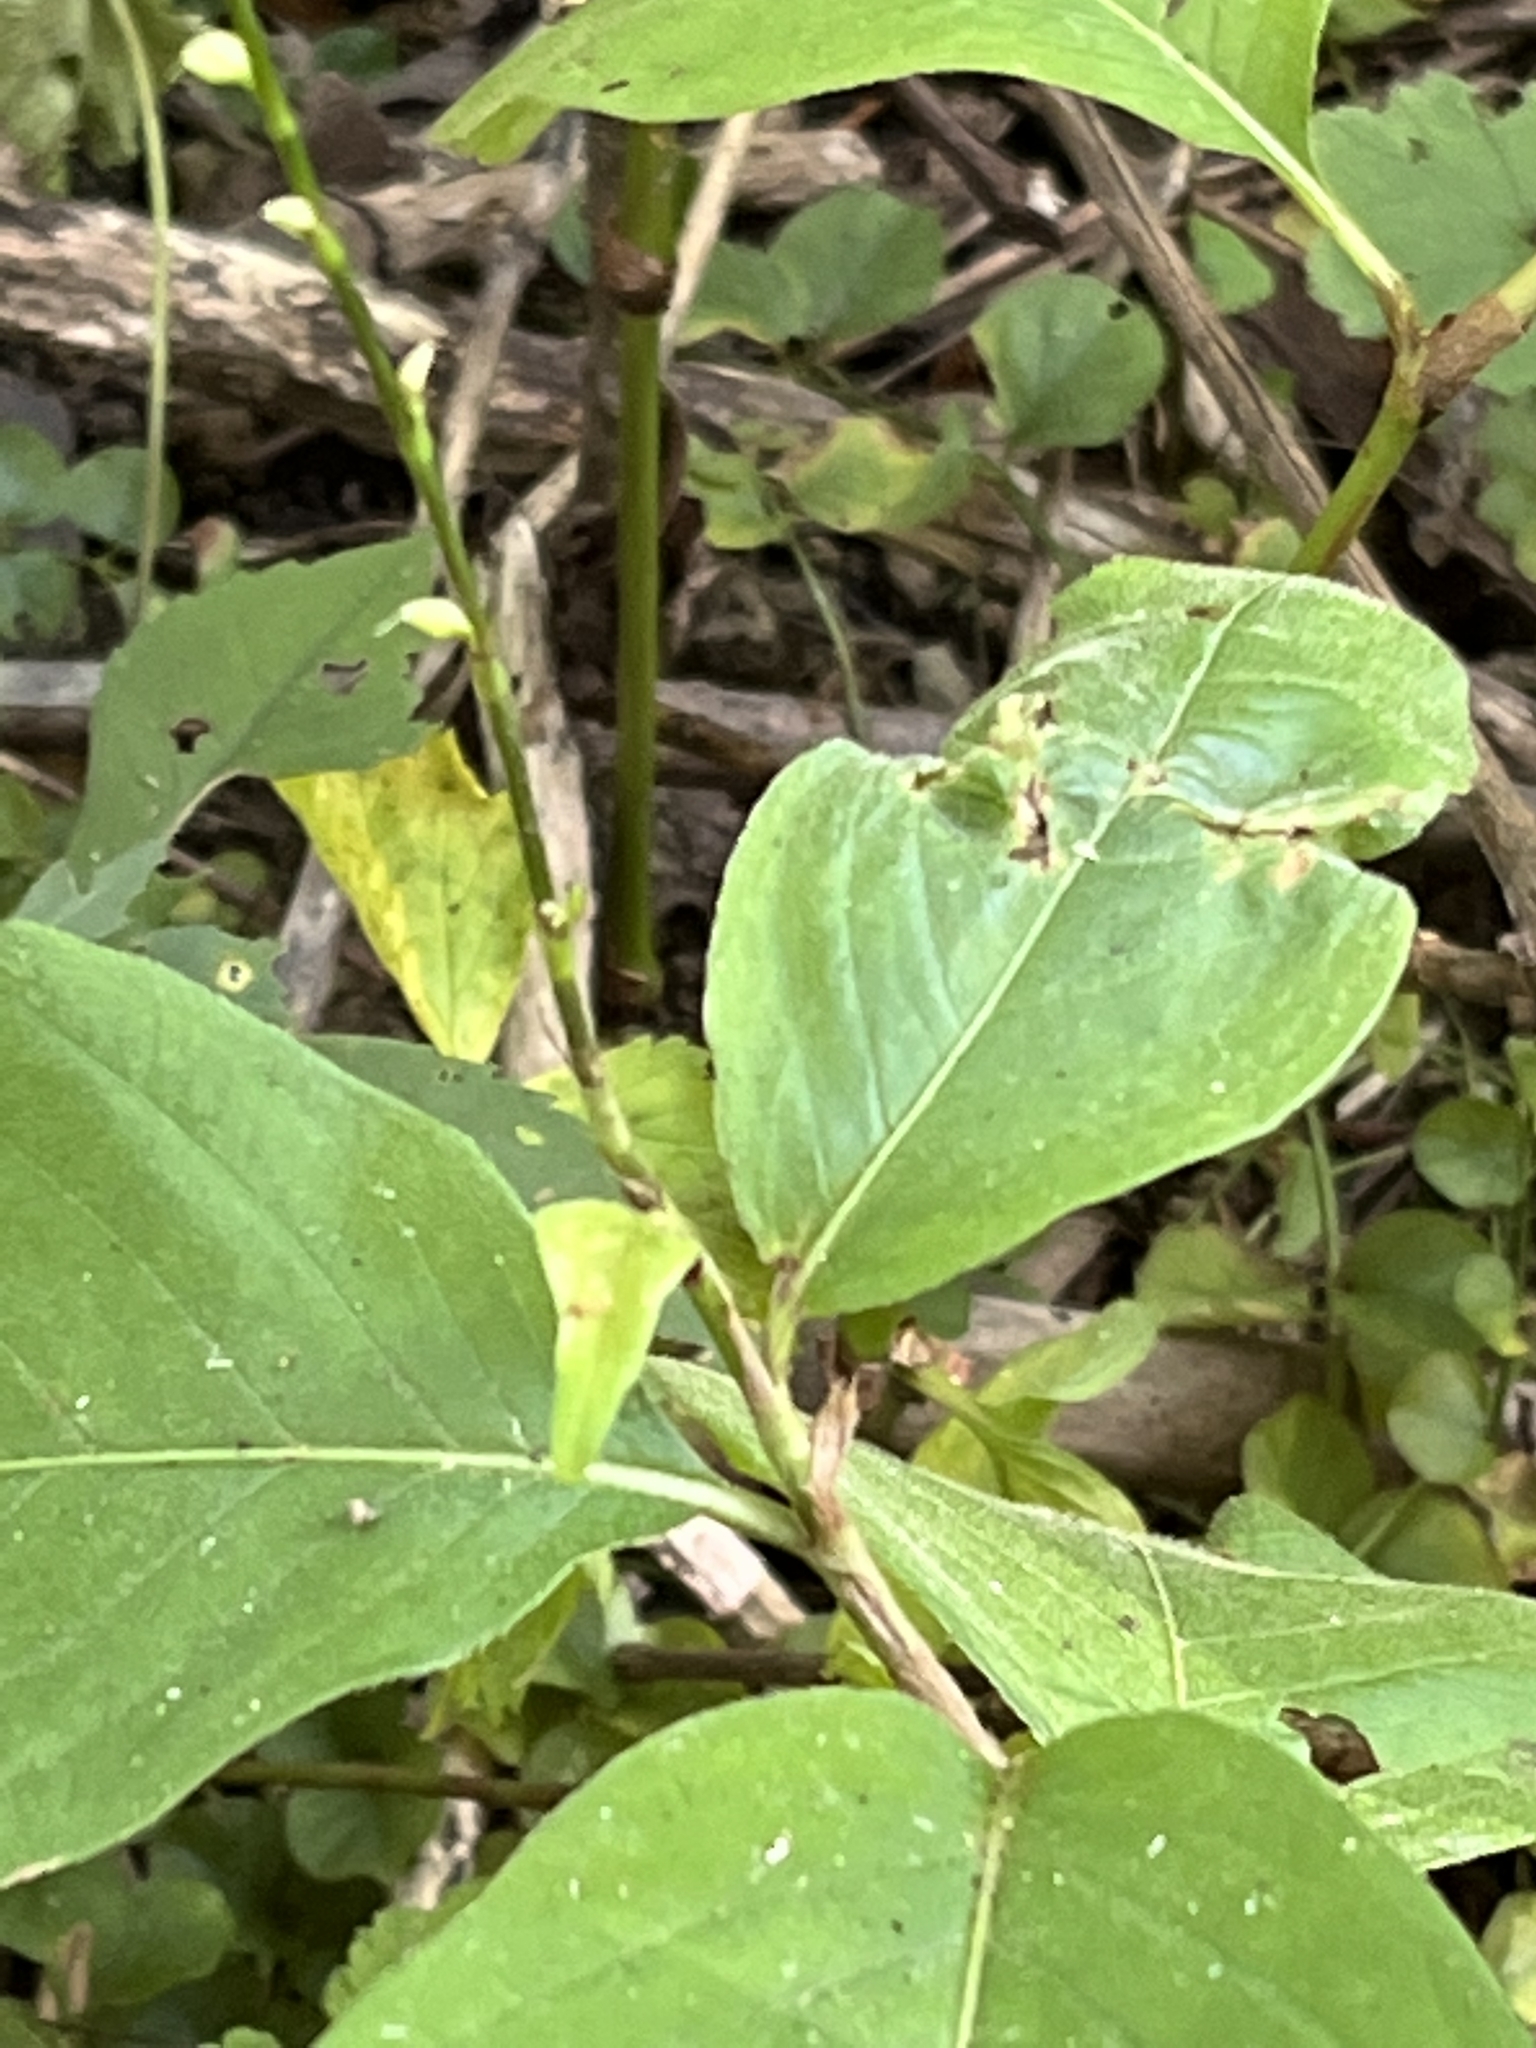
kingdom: Plantae
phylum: Tracheophyta
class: Magnoliopsida
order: Caryophyllales
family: Polygonaceae
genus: Persicaria
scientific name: Persicaria virginiana
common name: Jumpseed
